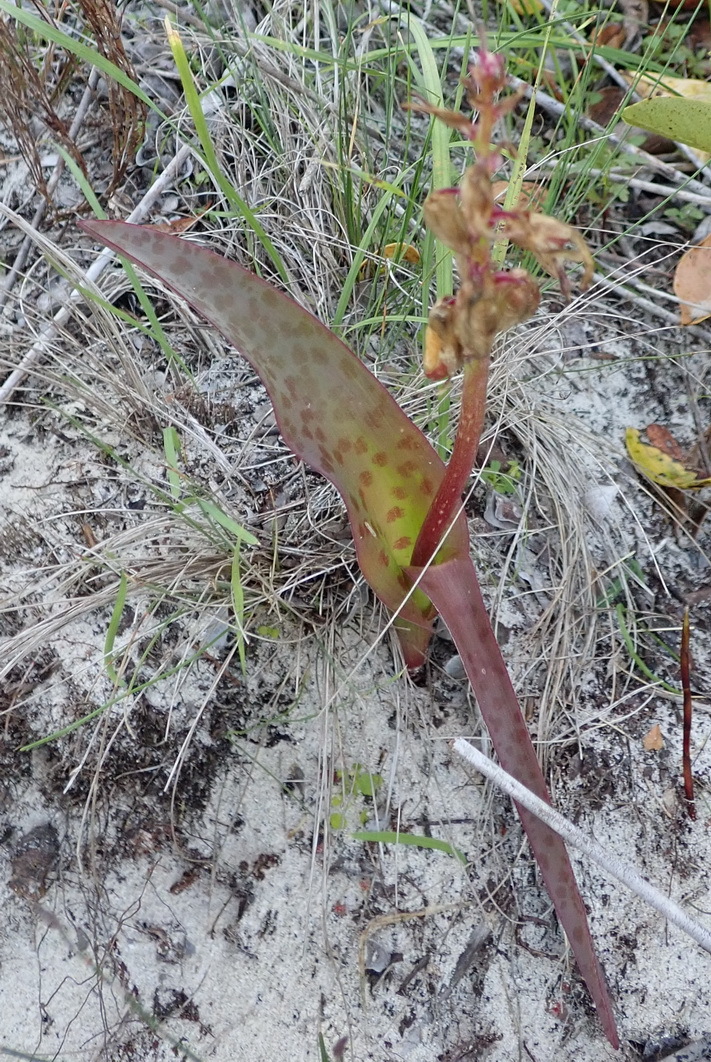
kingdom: Plantae
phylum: Tracheophyta
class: Liliopsida
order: Asparagales
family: Asparagaceae
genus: Lachenalia
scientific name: Lachenalia bulbifera
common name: Red lachenalia
